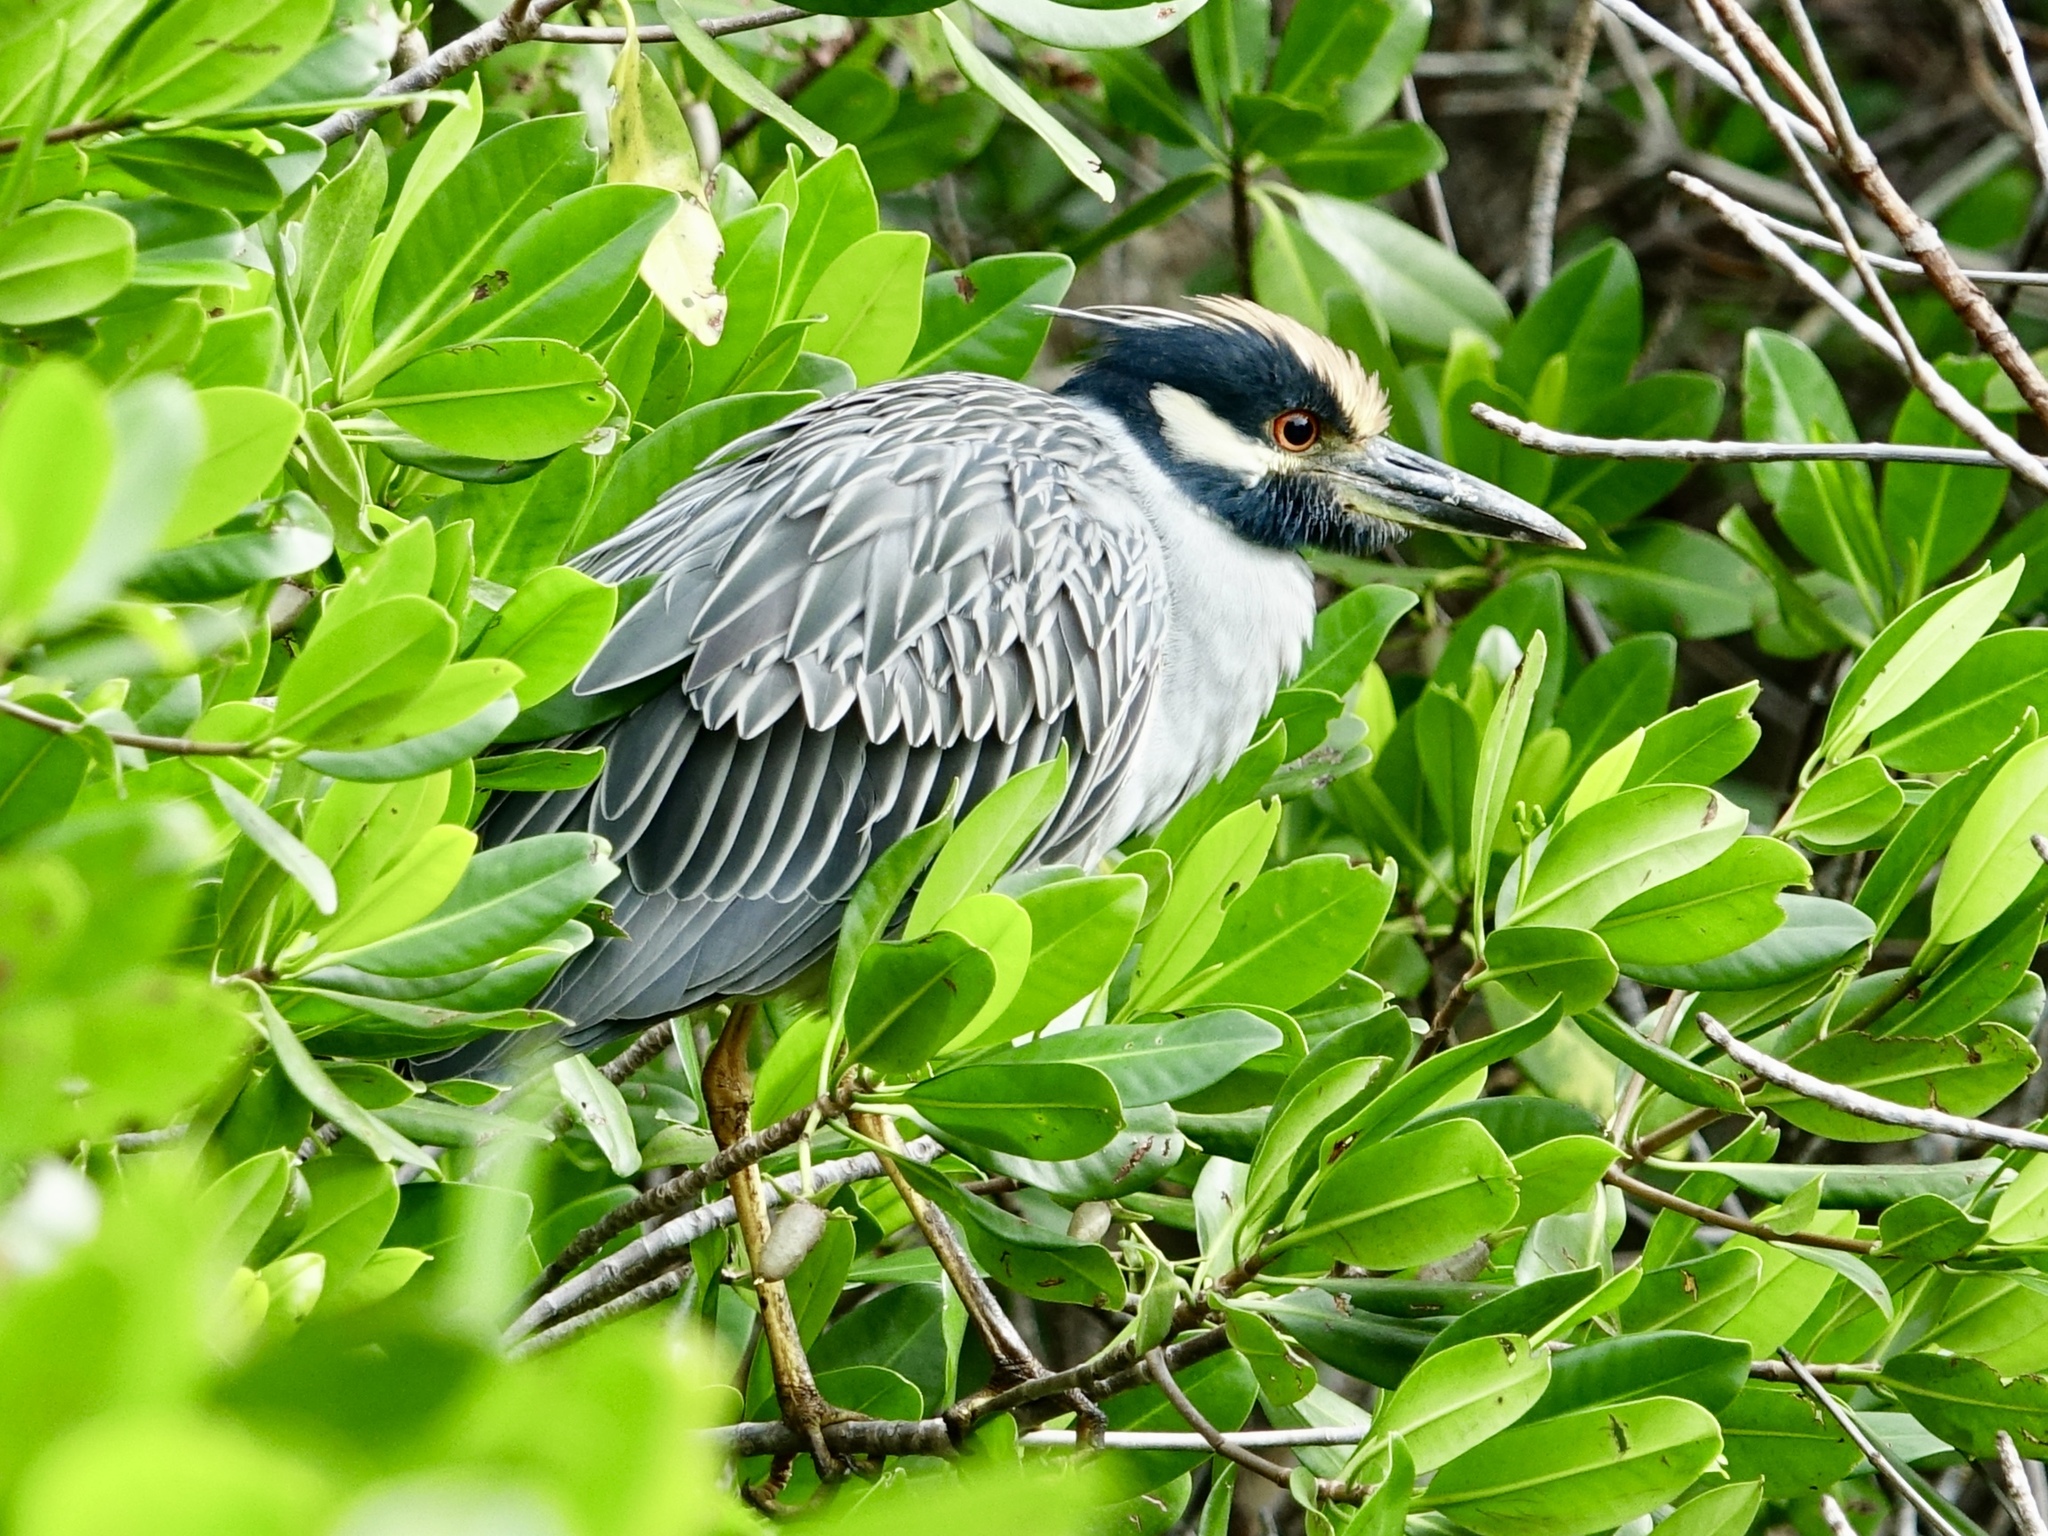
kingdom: Animalia
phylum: Chordata
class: Aves
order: Pelecaniformes
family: Ardeidae
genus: Nyctanassa
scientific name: Nyctanassa violacea
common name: Yellow-crowned night heron
